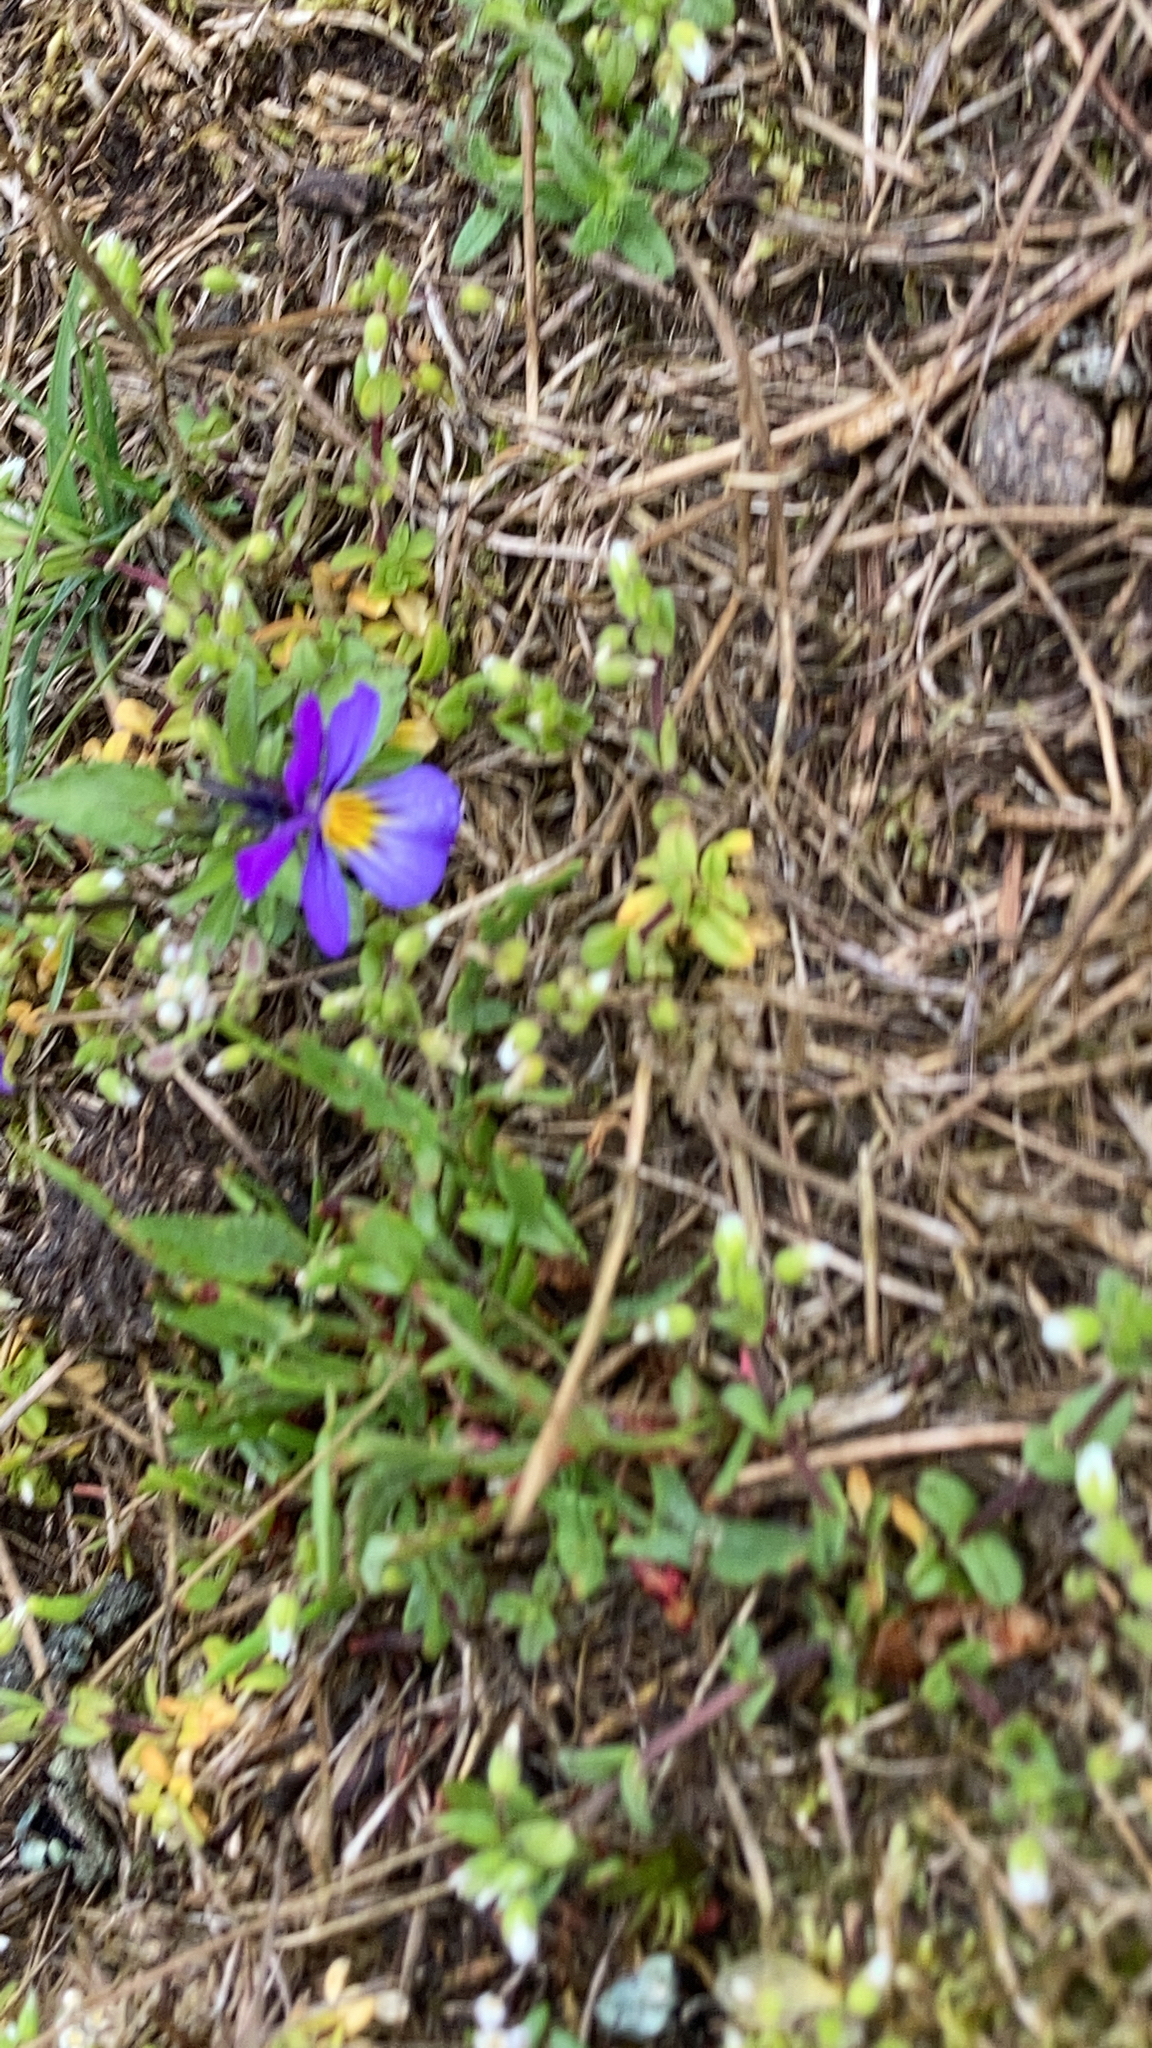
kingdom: Plantae
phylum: Tracheophyta
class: Magnoliopsida
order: Malpighiales
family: Violaceae
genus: Viola
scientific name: Viola tricolor
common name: Pansy
